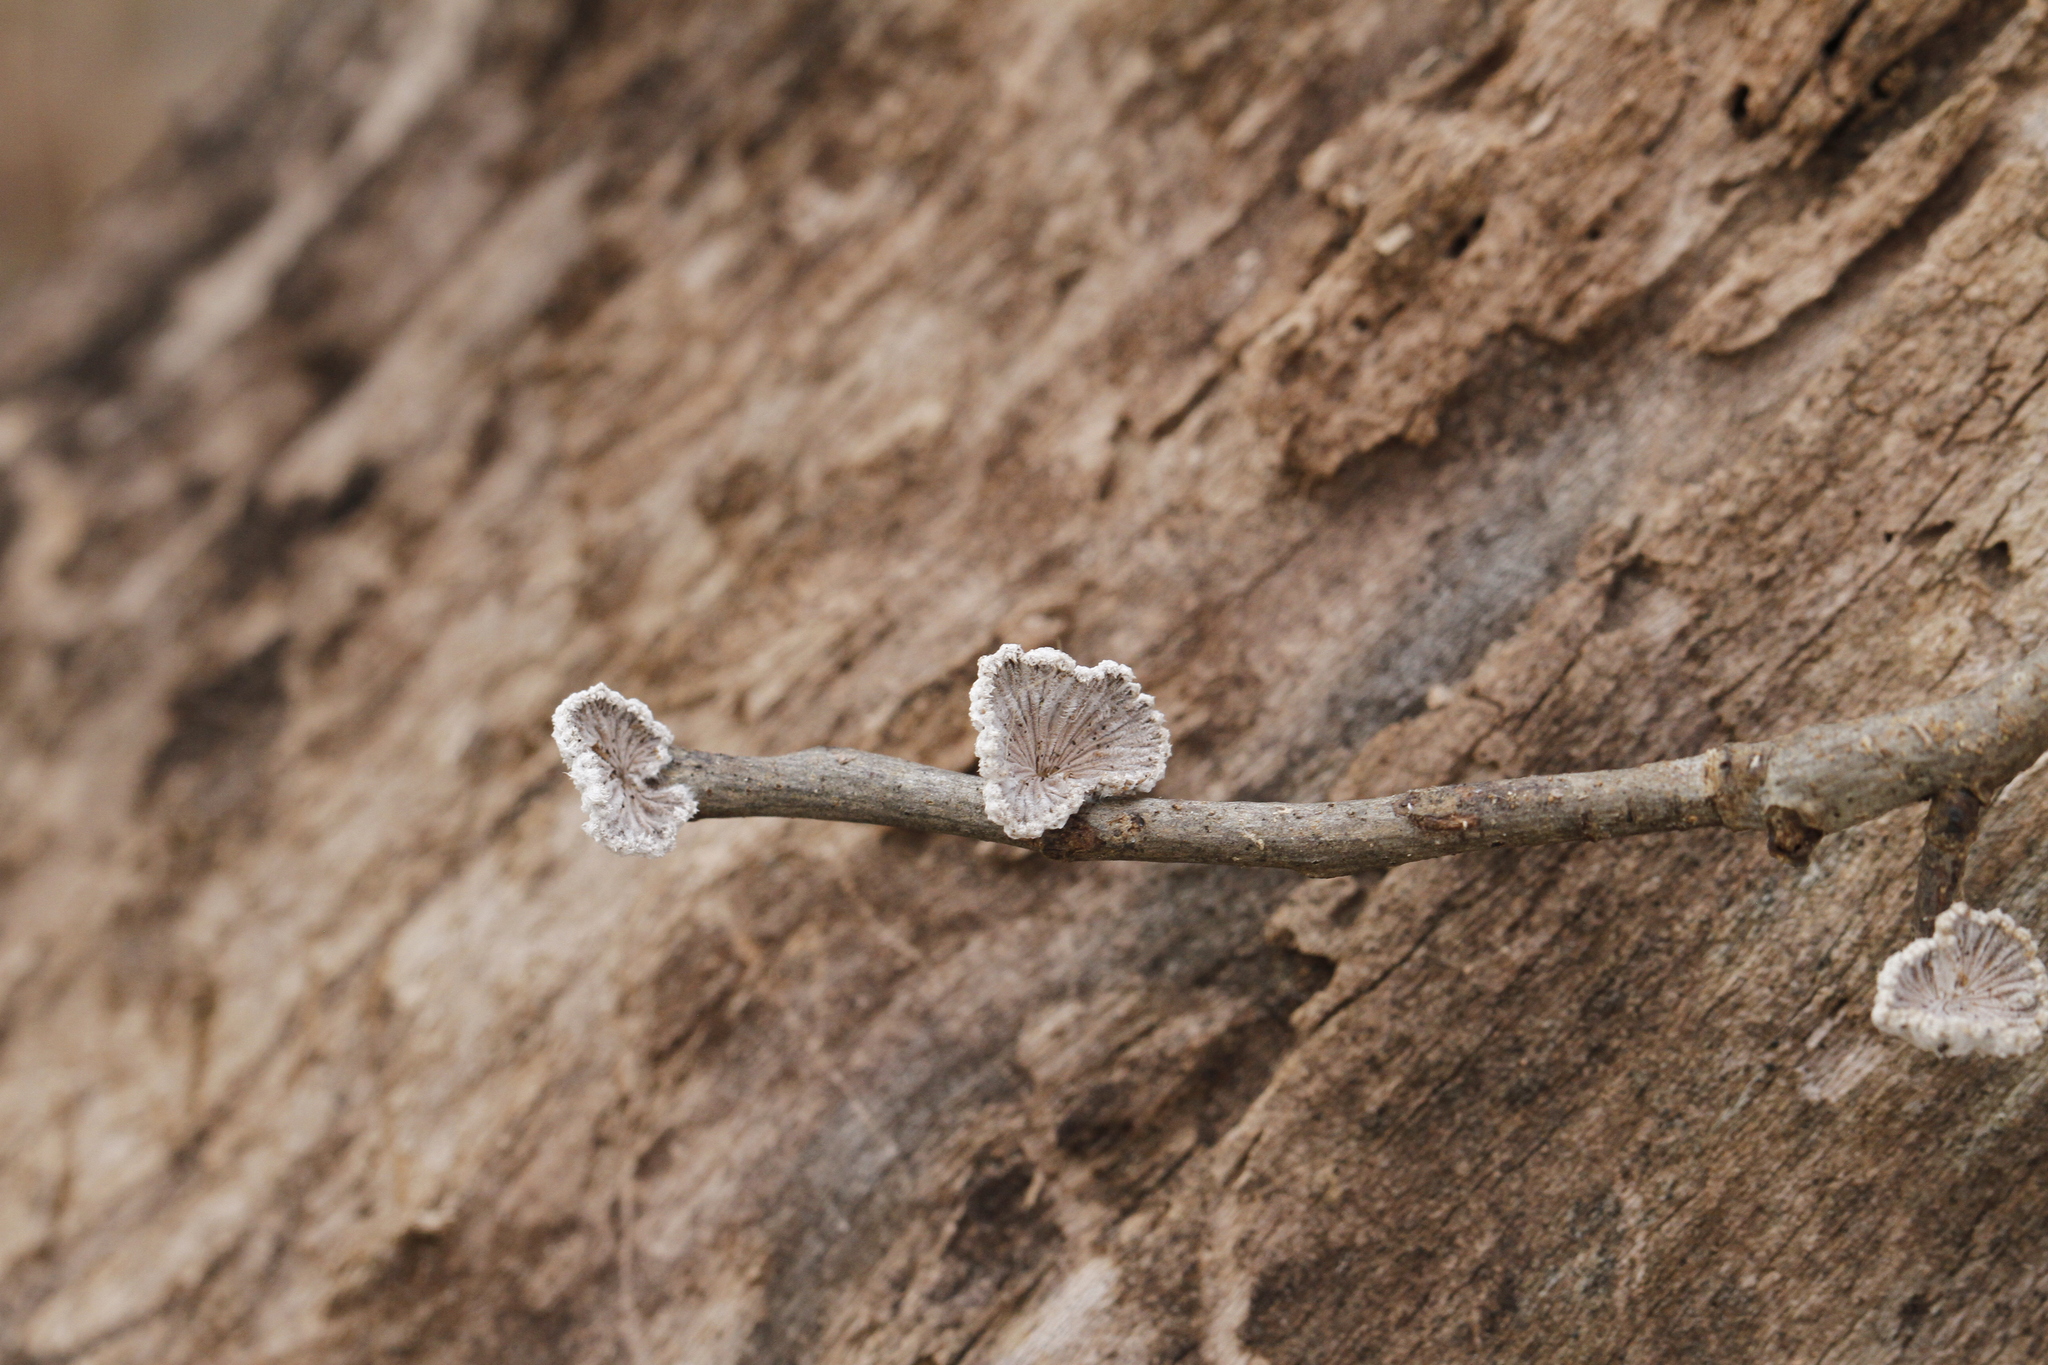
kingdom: Fungi
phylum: Basidiomycota
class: Agaricomycetes
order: Agaricales
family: Schizophyllaceae
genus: Schizophyllum
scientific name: Schizophyllum commune
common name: Common porecrust
